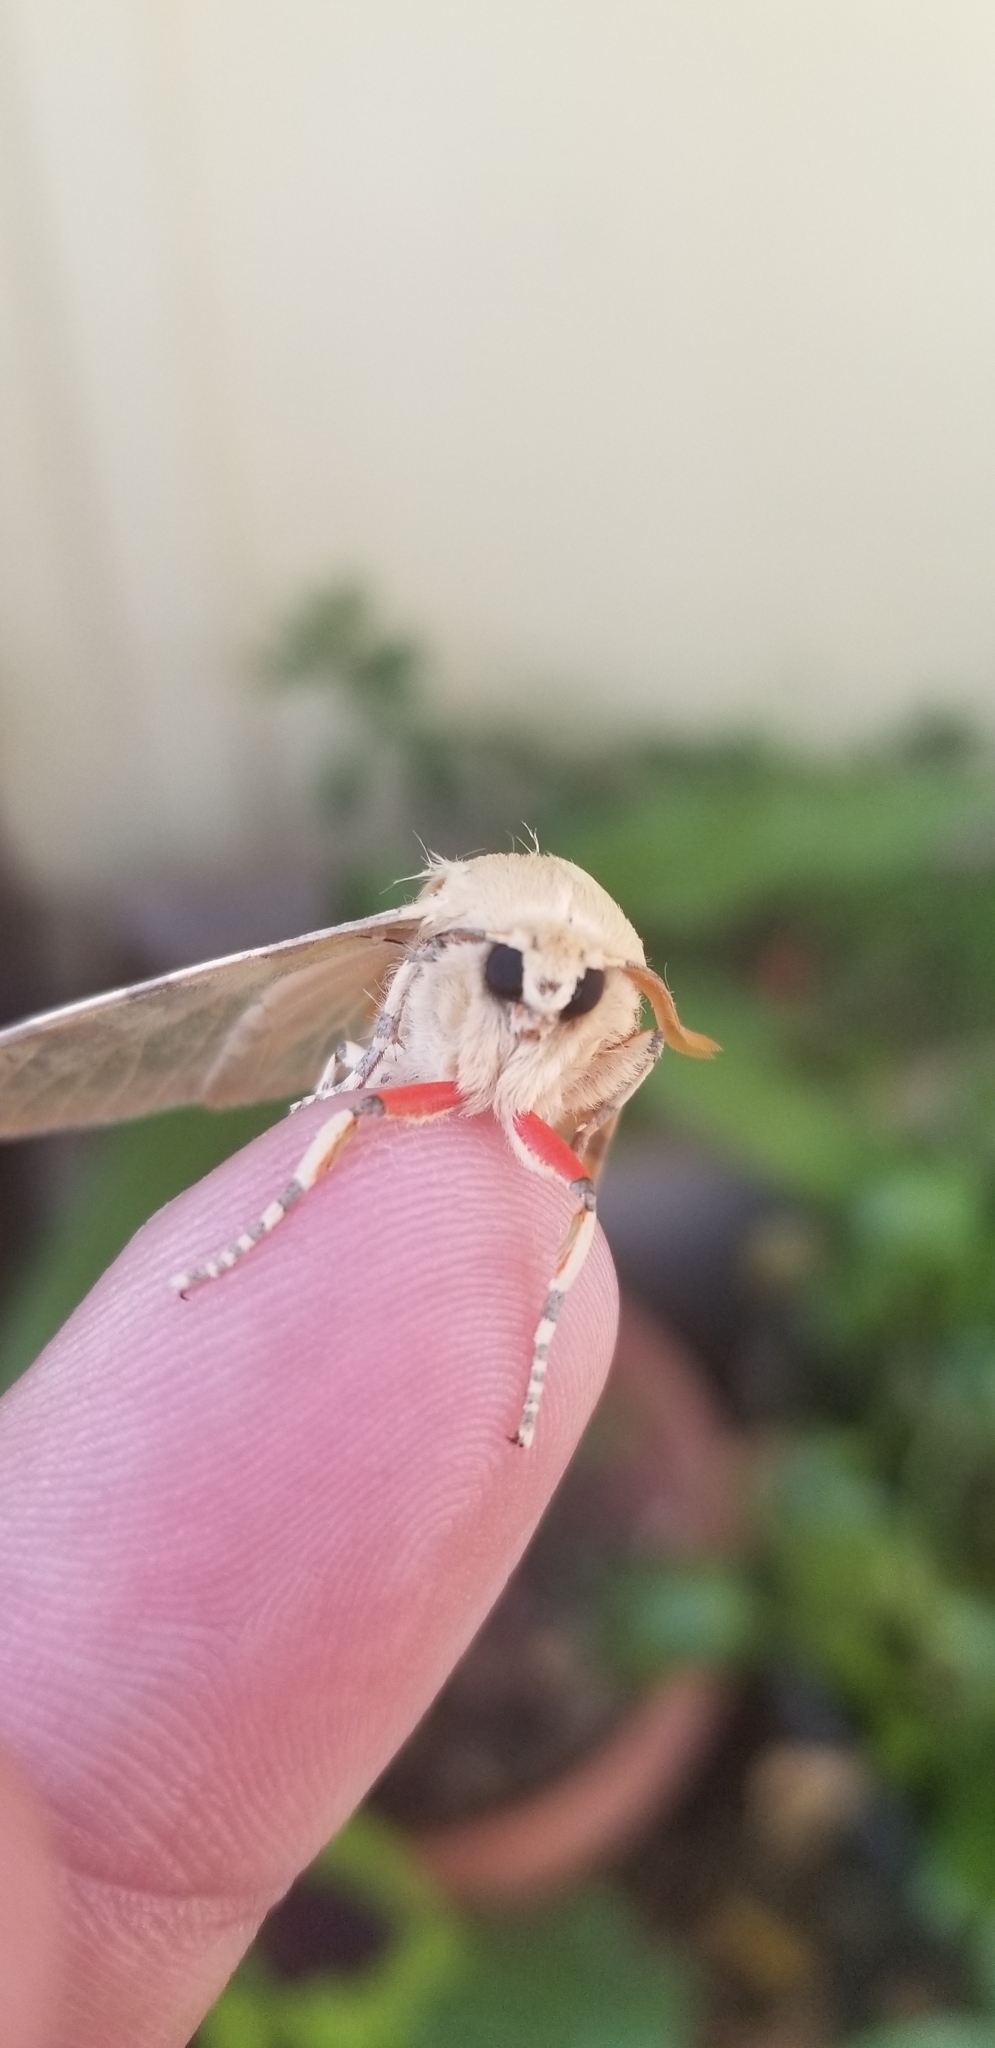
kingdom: Animalia
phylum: Arthropoda
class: Insecta
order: Lepidoptera
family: Erebidae
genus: Hemihyalea
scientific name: Hemihyalea edwardsii
